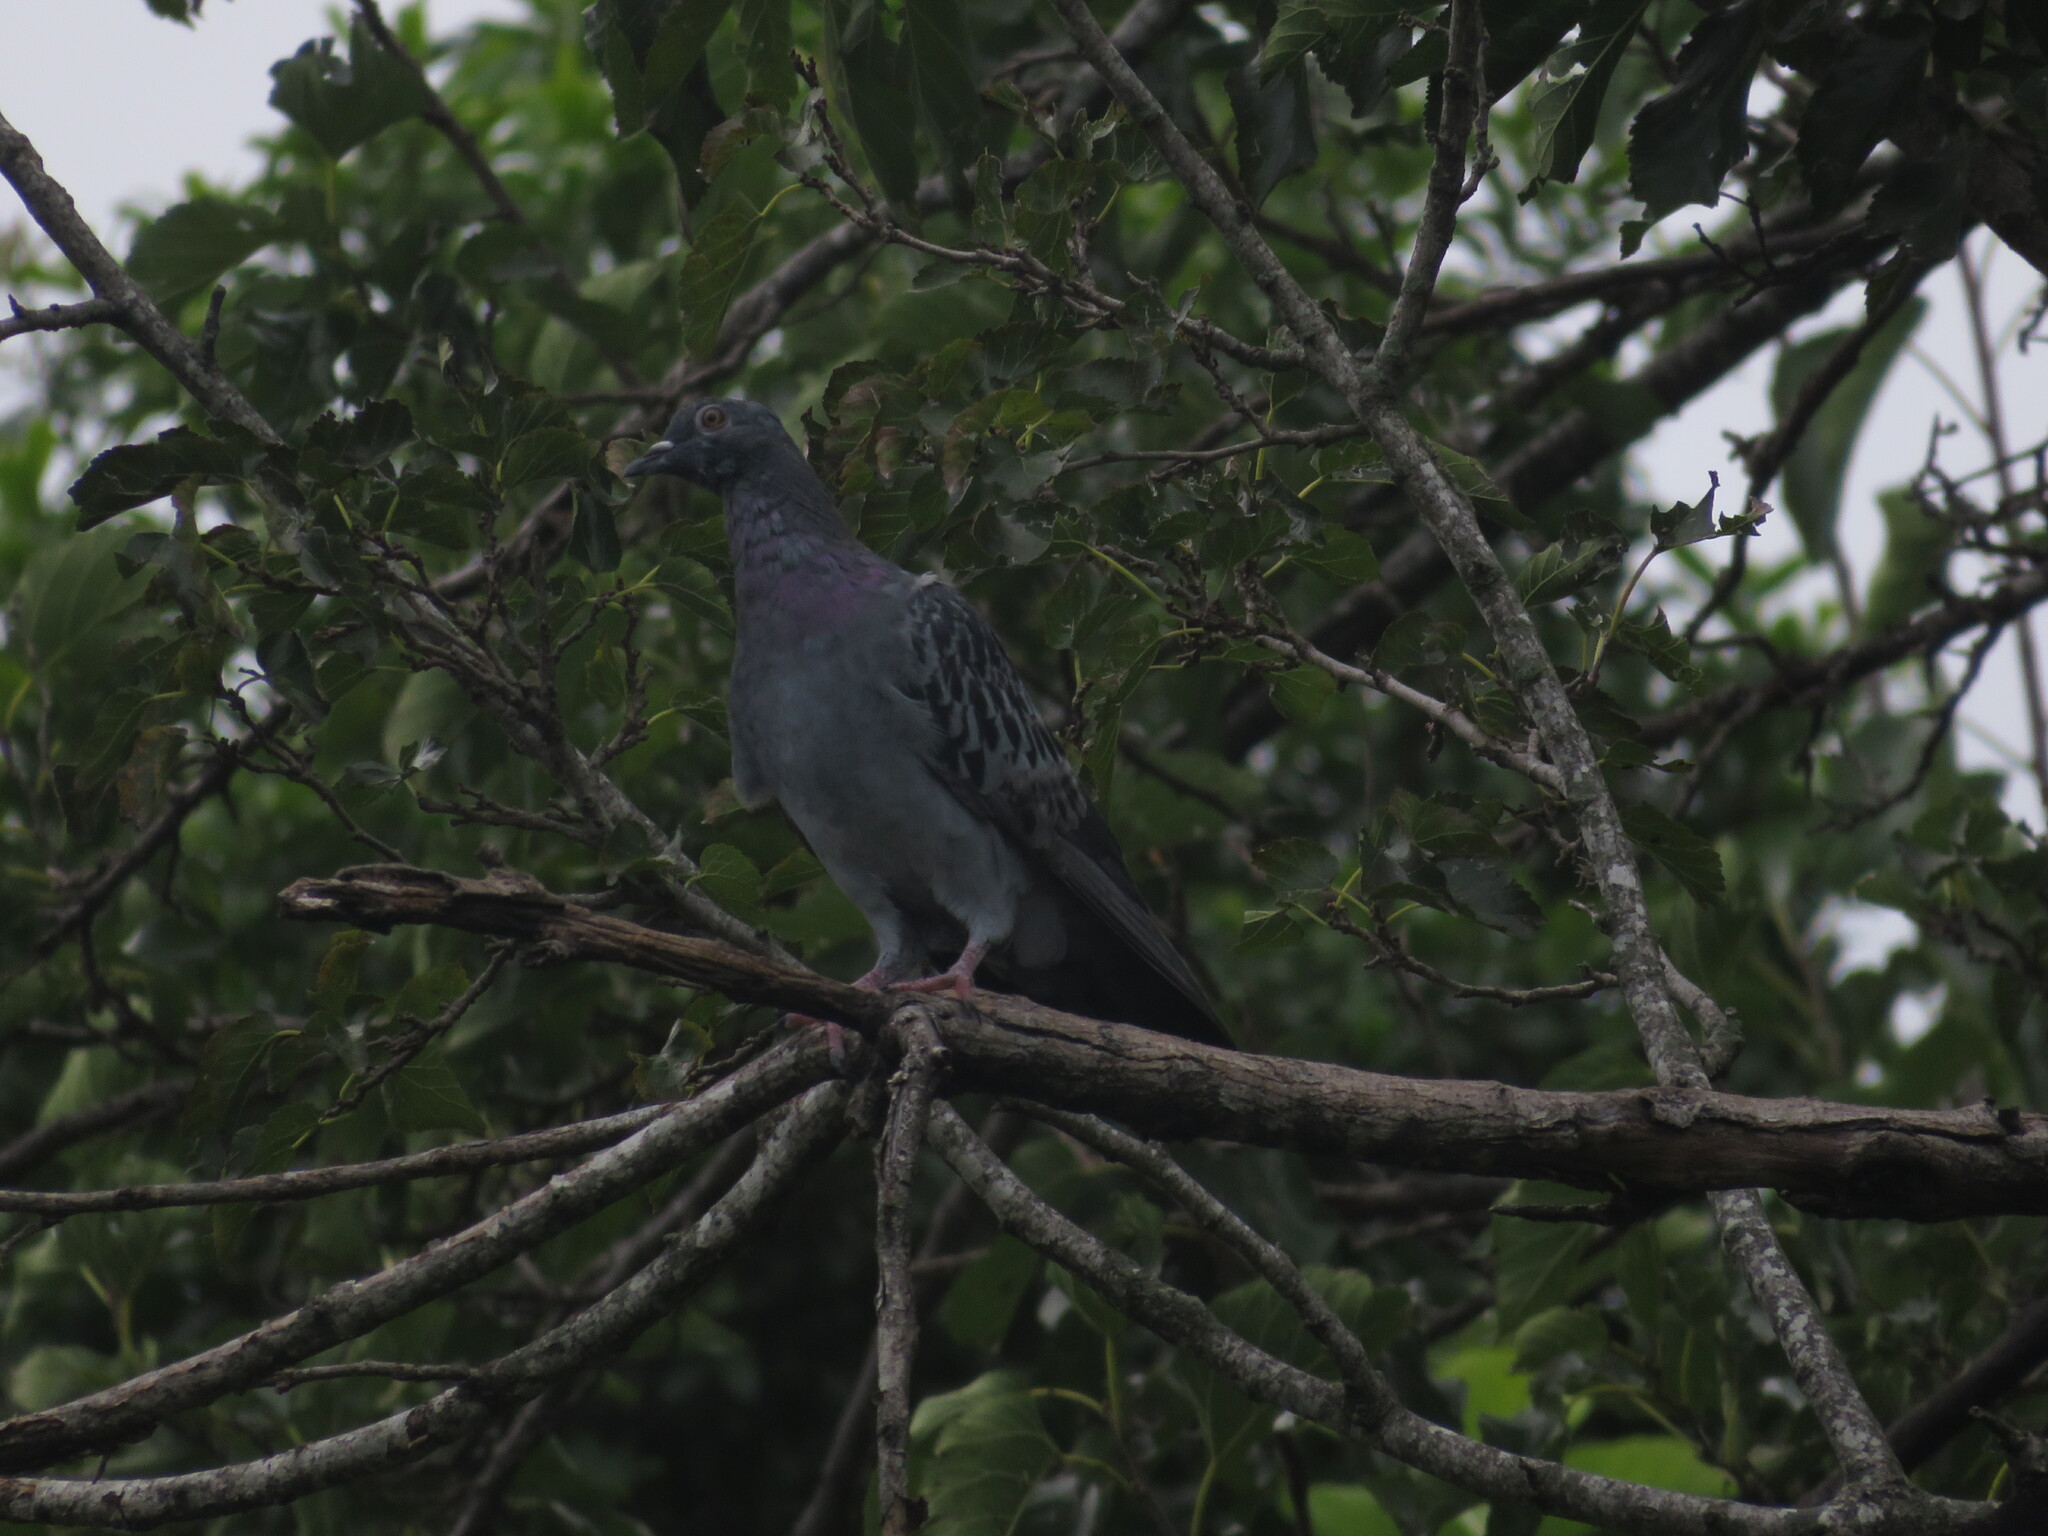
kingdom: Animalia
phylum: Chordata
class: Aves
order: Columbiformes
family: Columbidae
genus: Columba
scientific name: Columba livia
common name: Rock pigeon
